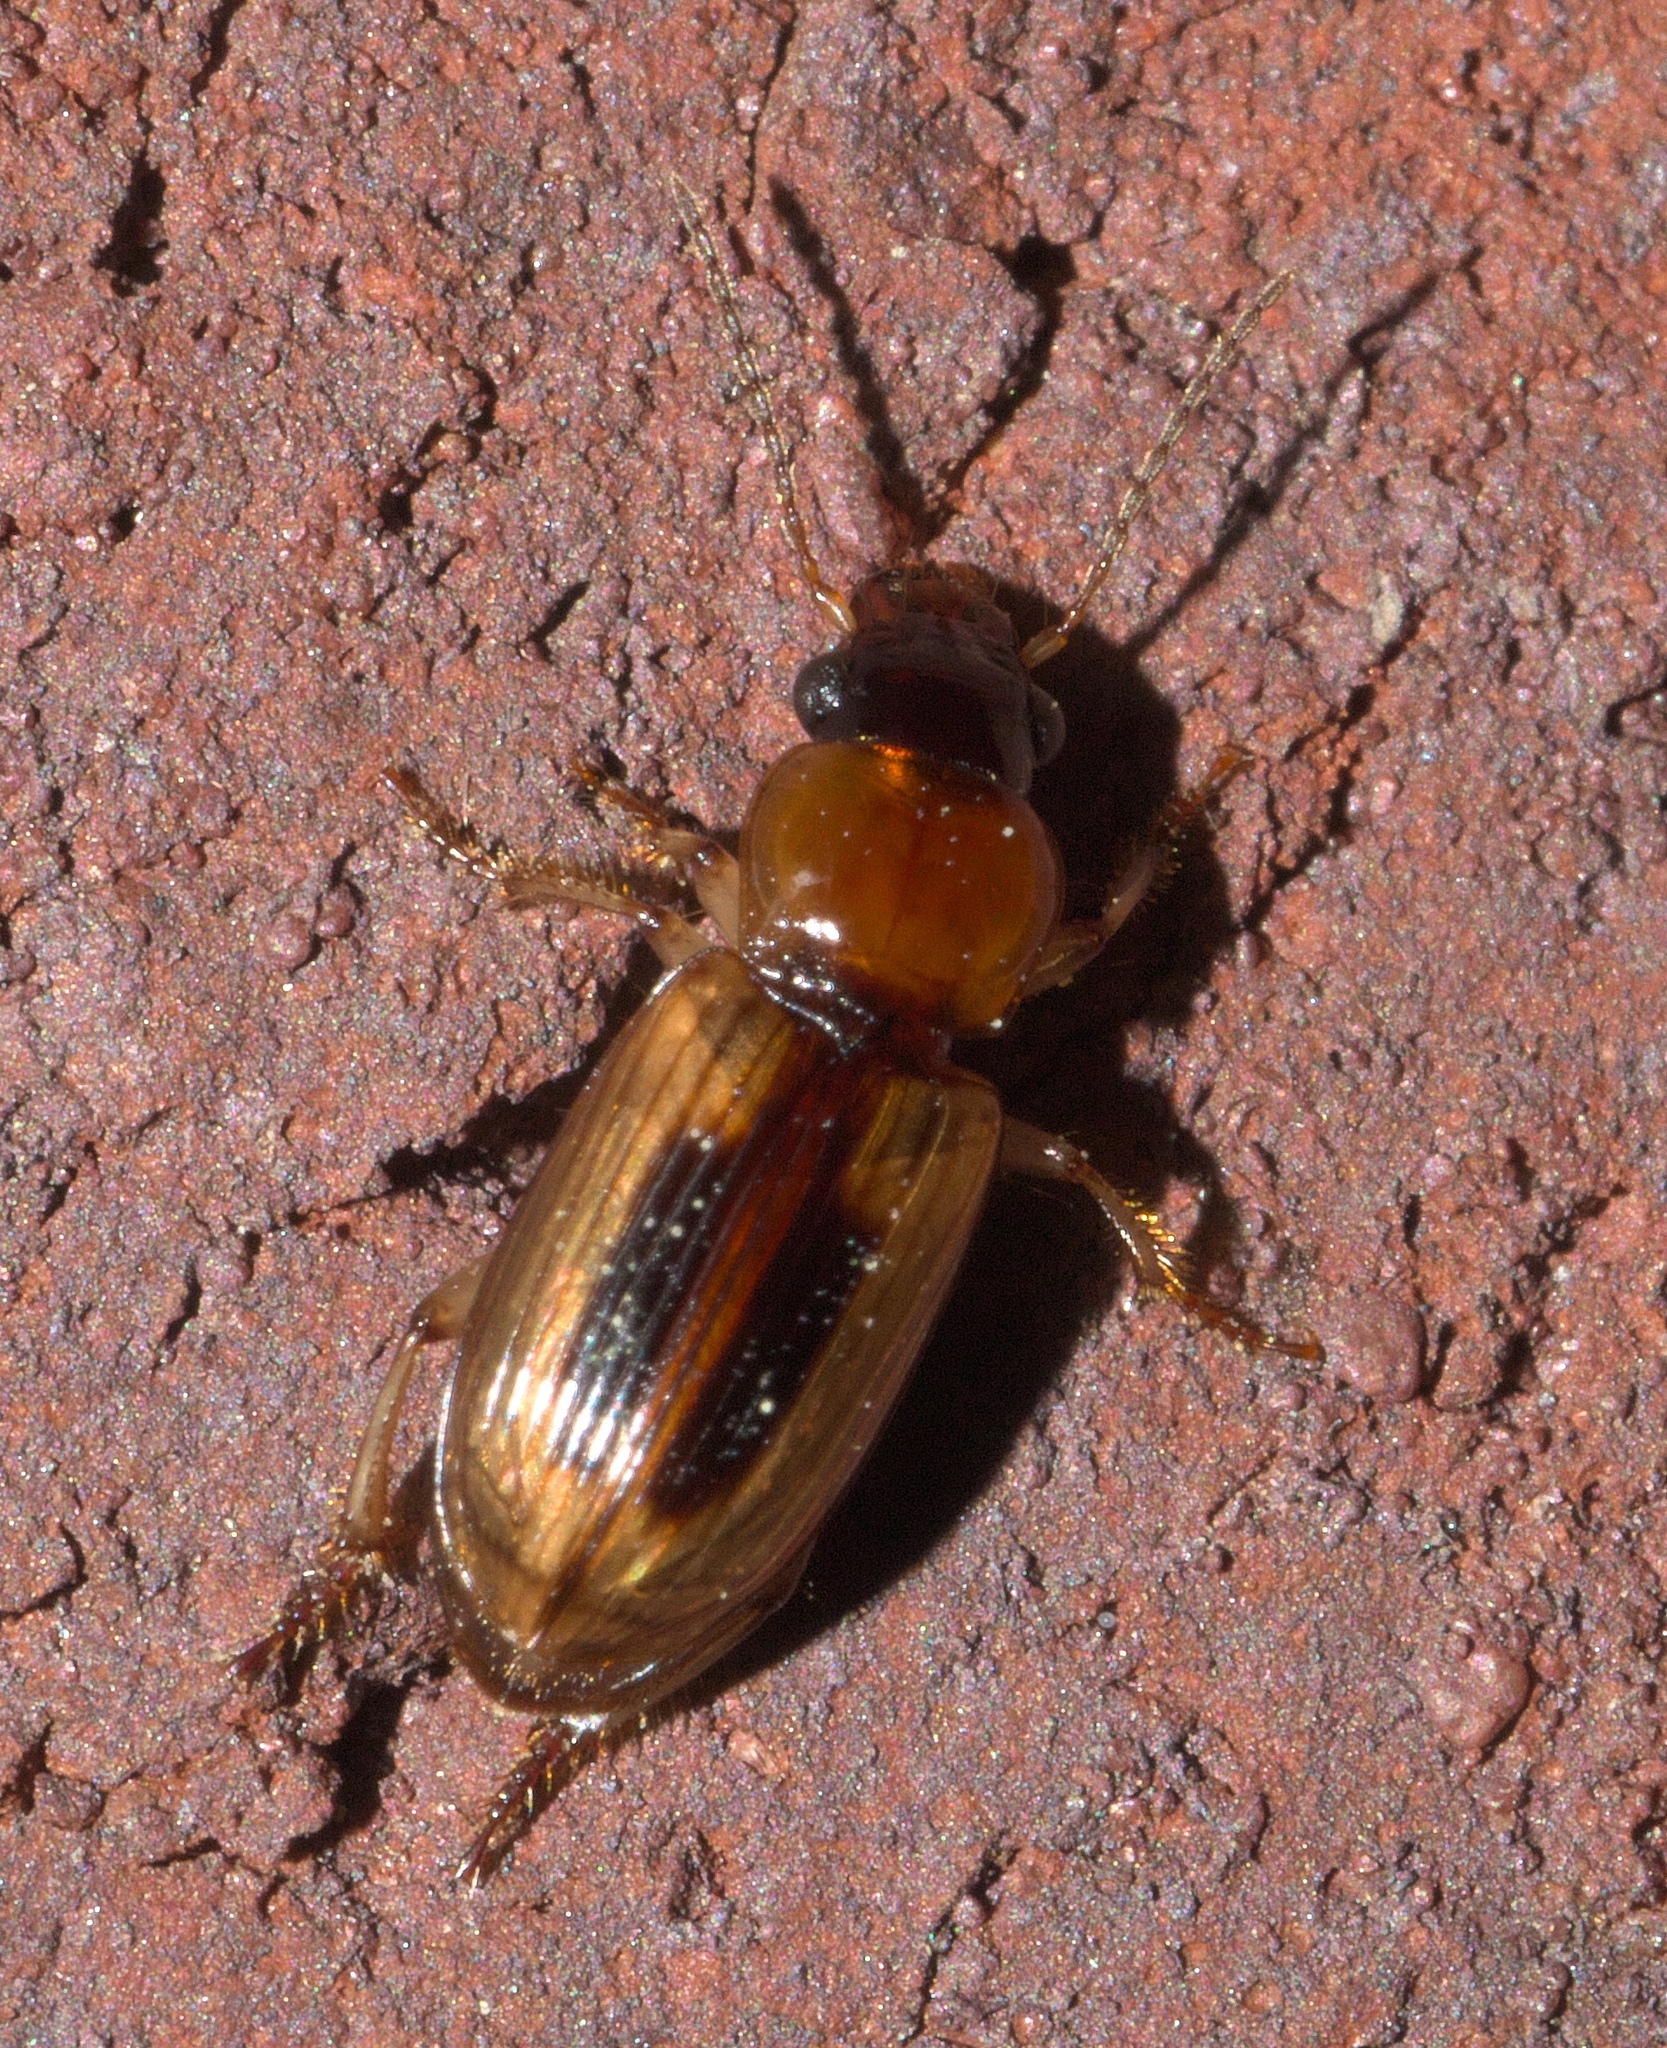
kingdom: Animalia
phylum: Arthropoda
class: Insecta
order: Coleoptera
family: Carabidae
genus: Stenolophus
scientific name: Stenolophus lecontei
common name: Leconte's seedcorn beetle
